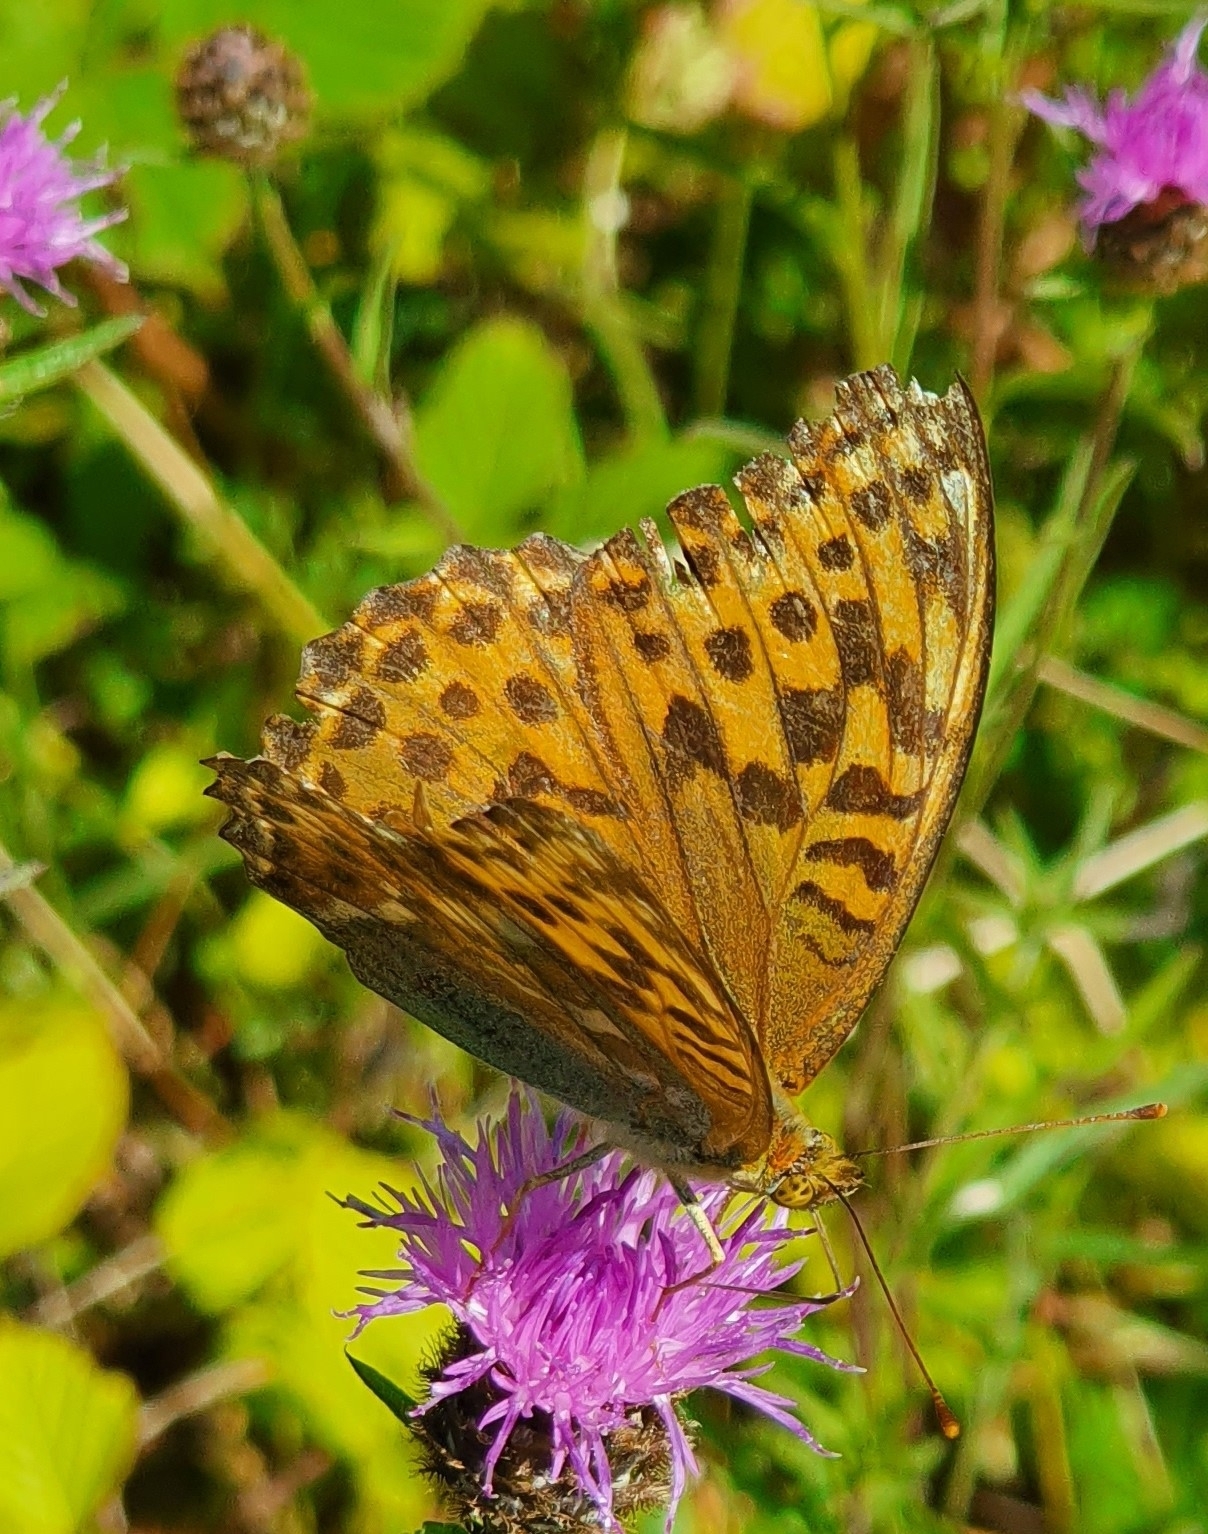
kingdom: Animalia
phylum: Arthropoda
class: Insecta
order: Lepidoptera
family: Nymphalidae
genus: Argynnis
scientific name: Argynnis paphia
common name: Silver-washed fritillary
